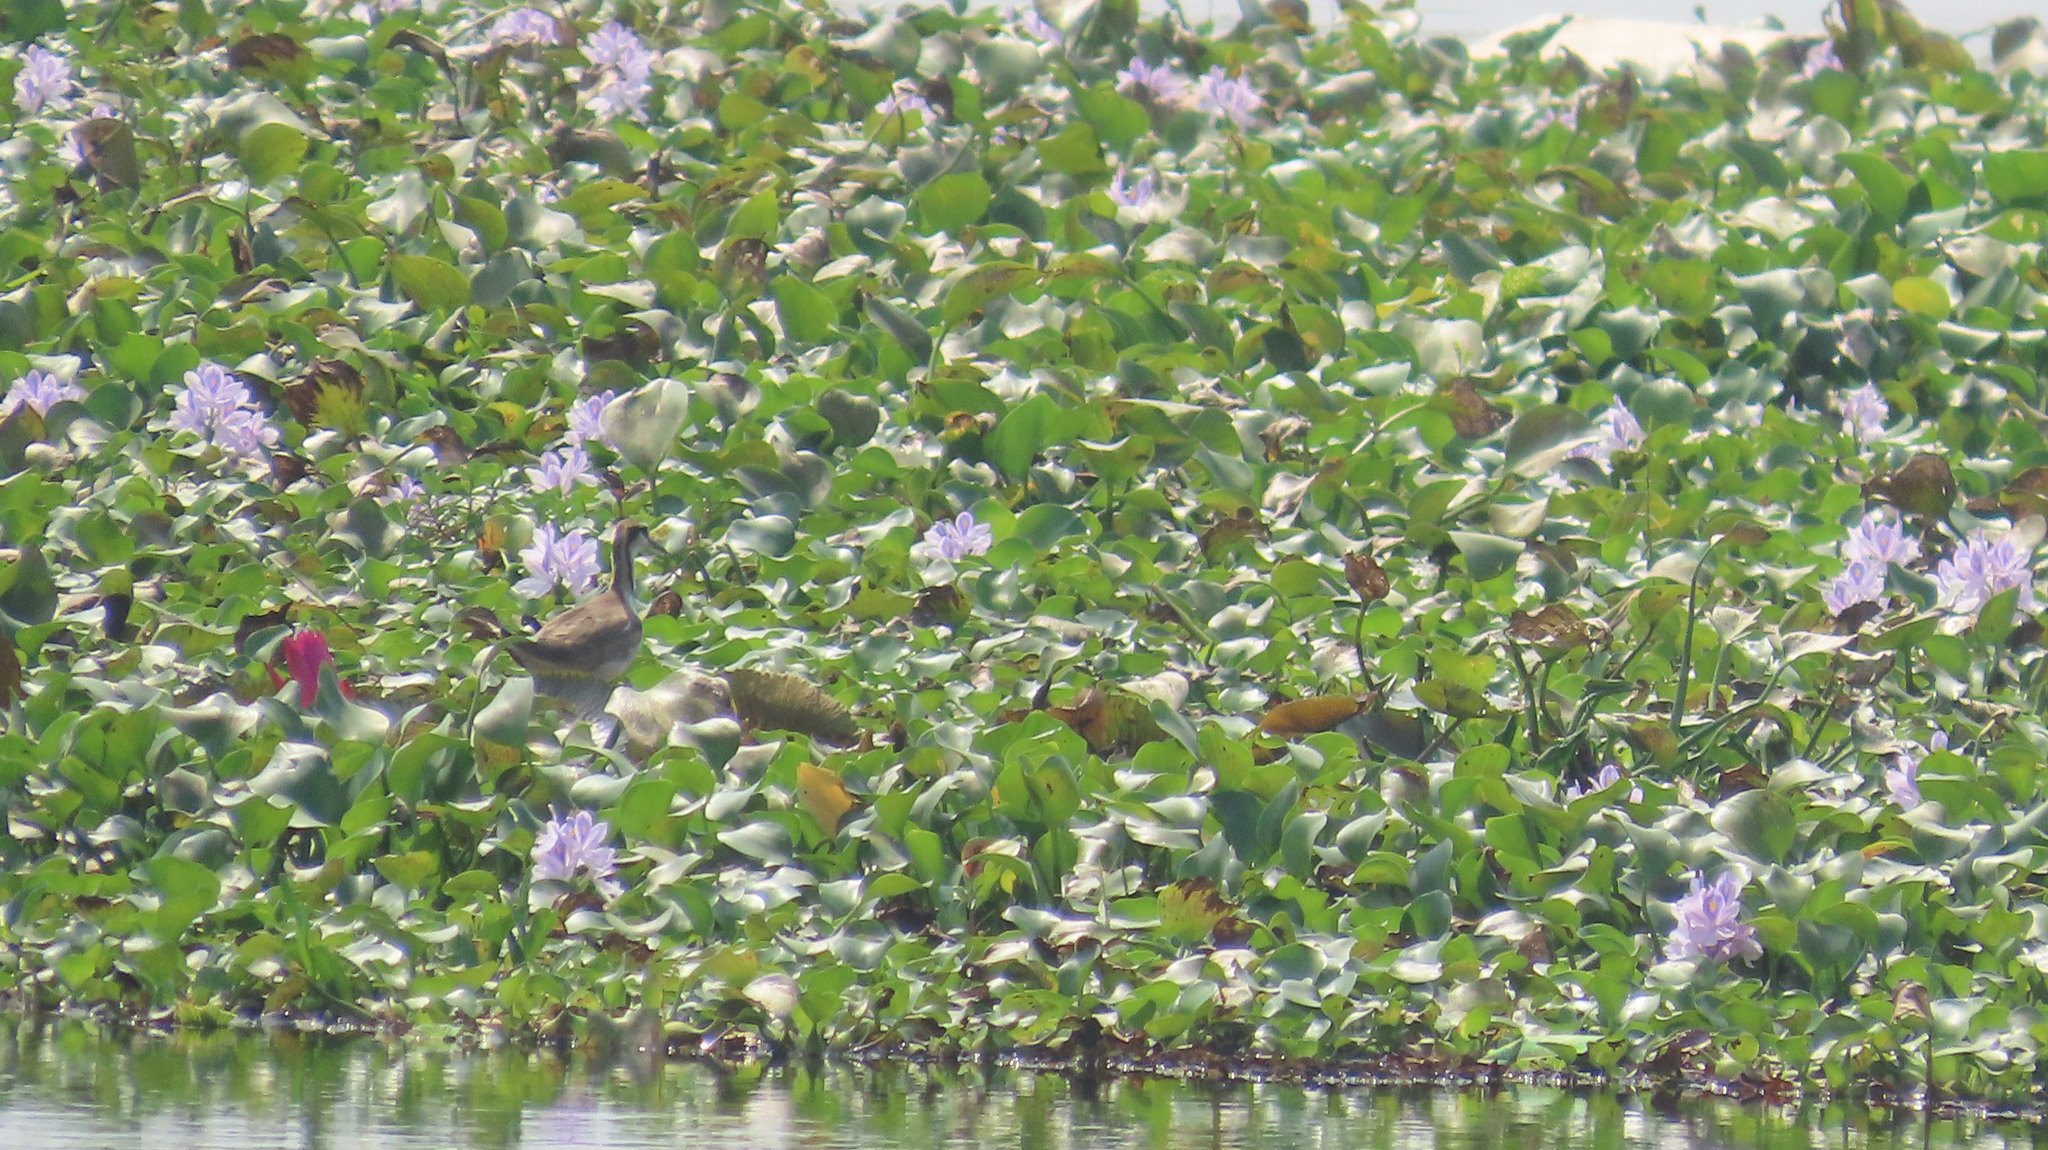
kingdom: Animalia
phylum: Chordata
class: Aves
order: Charadriiformes
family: Jacanidae
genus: Hydrophasianus
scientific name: Hydrophasianus chirurgus
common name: Pheasant-tailed jacana
